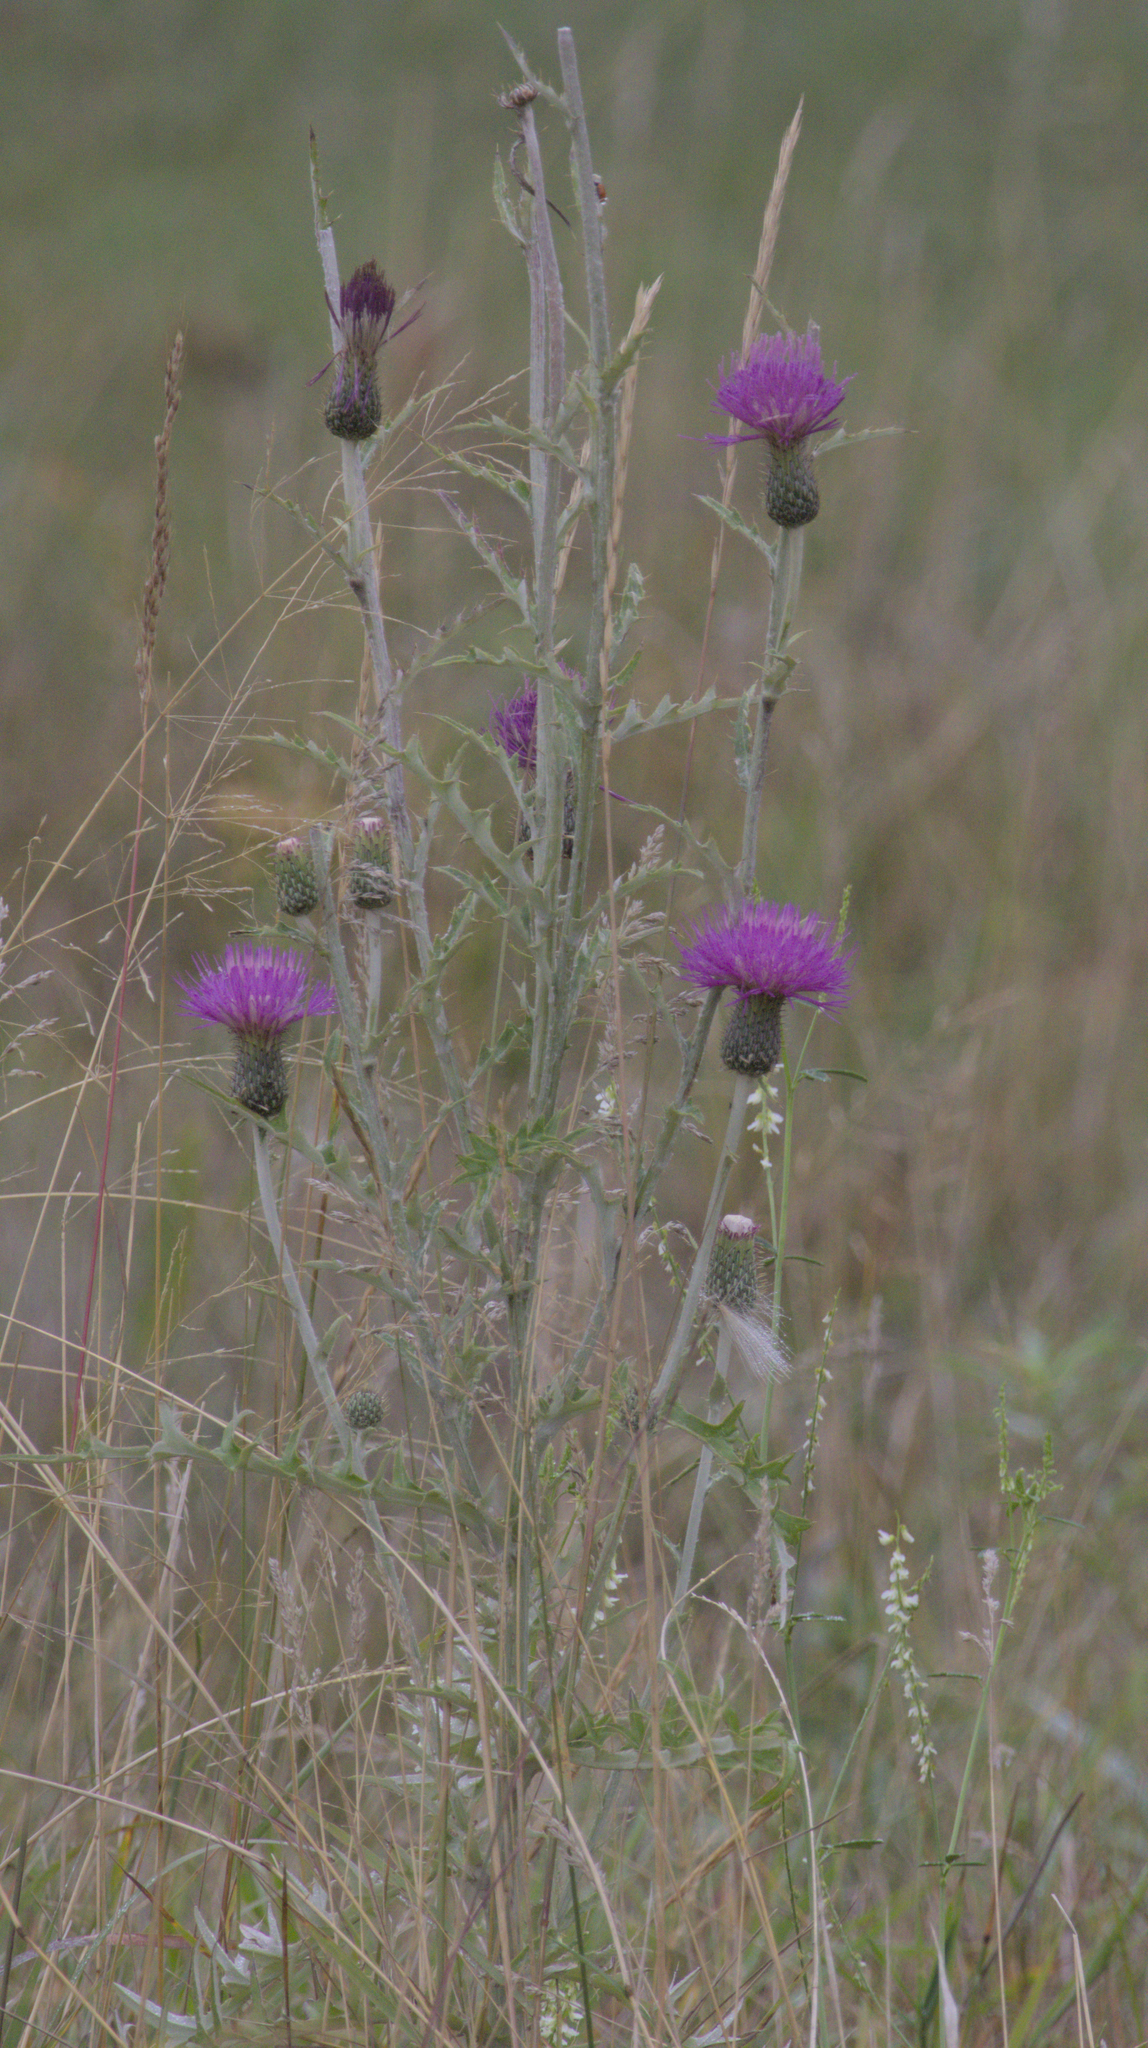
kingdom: Plantae
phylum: Tracheophyta
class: Magnoliopsida
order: Asterales
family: Asteraceae
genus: Cirsium
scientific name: Cirsium flodmanii
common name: Flodman's thistle
